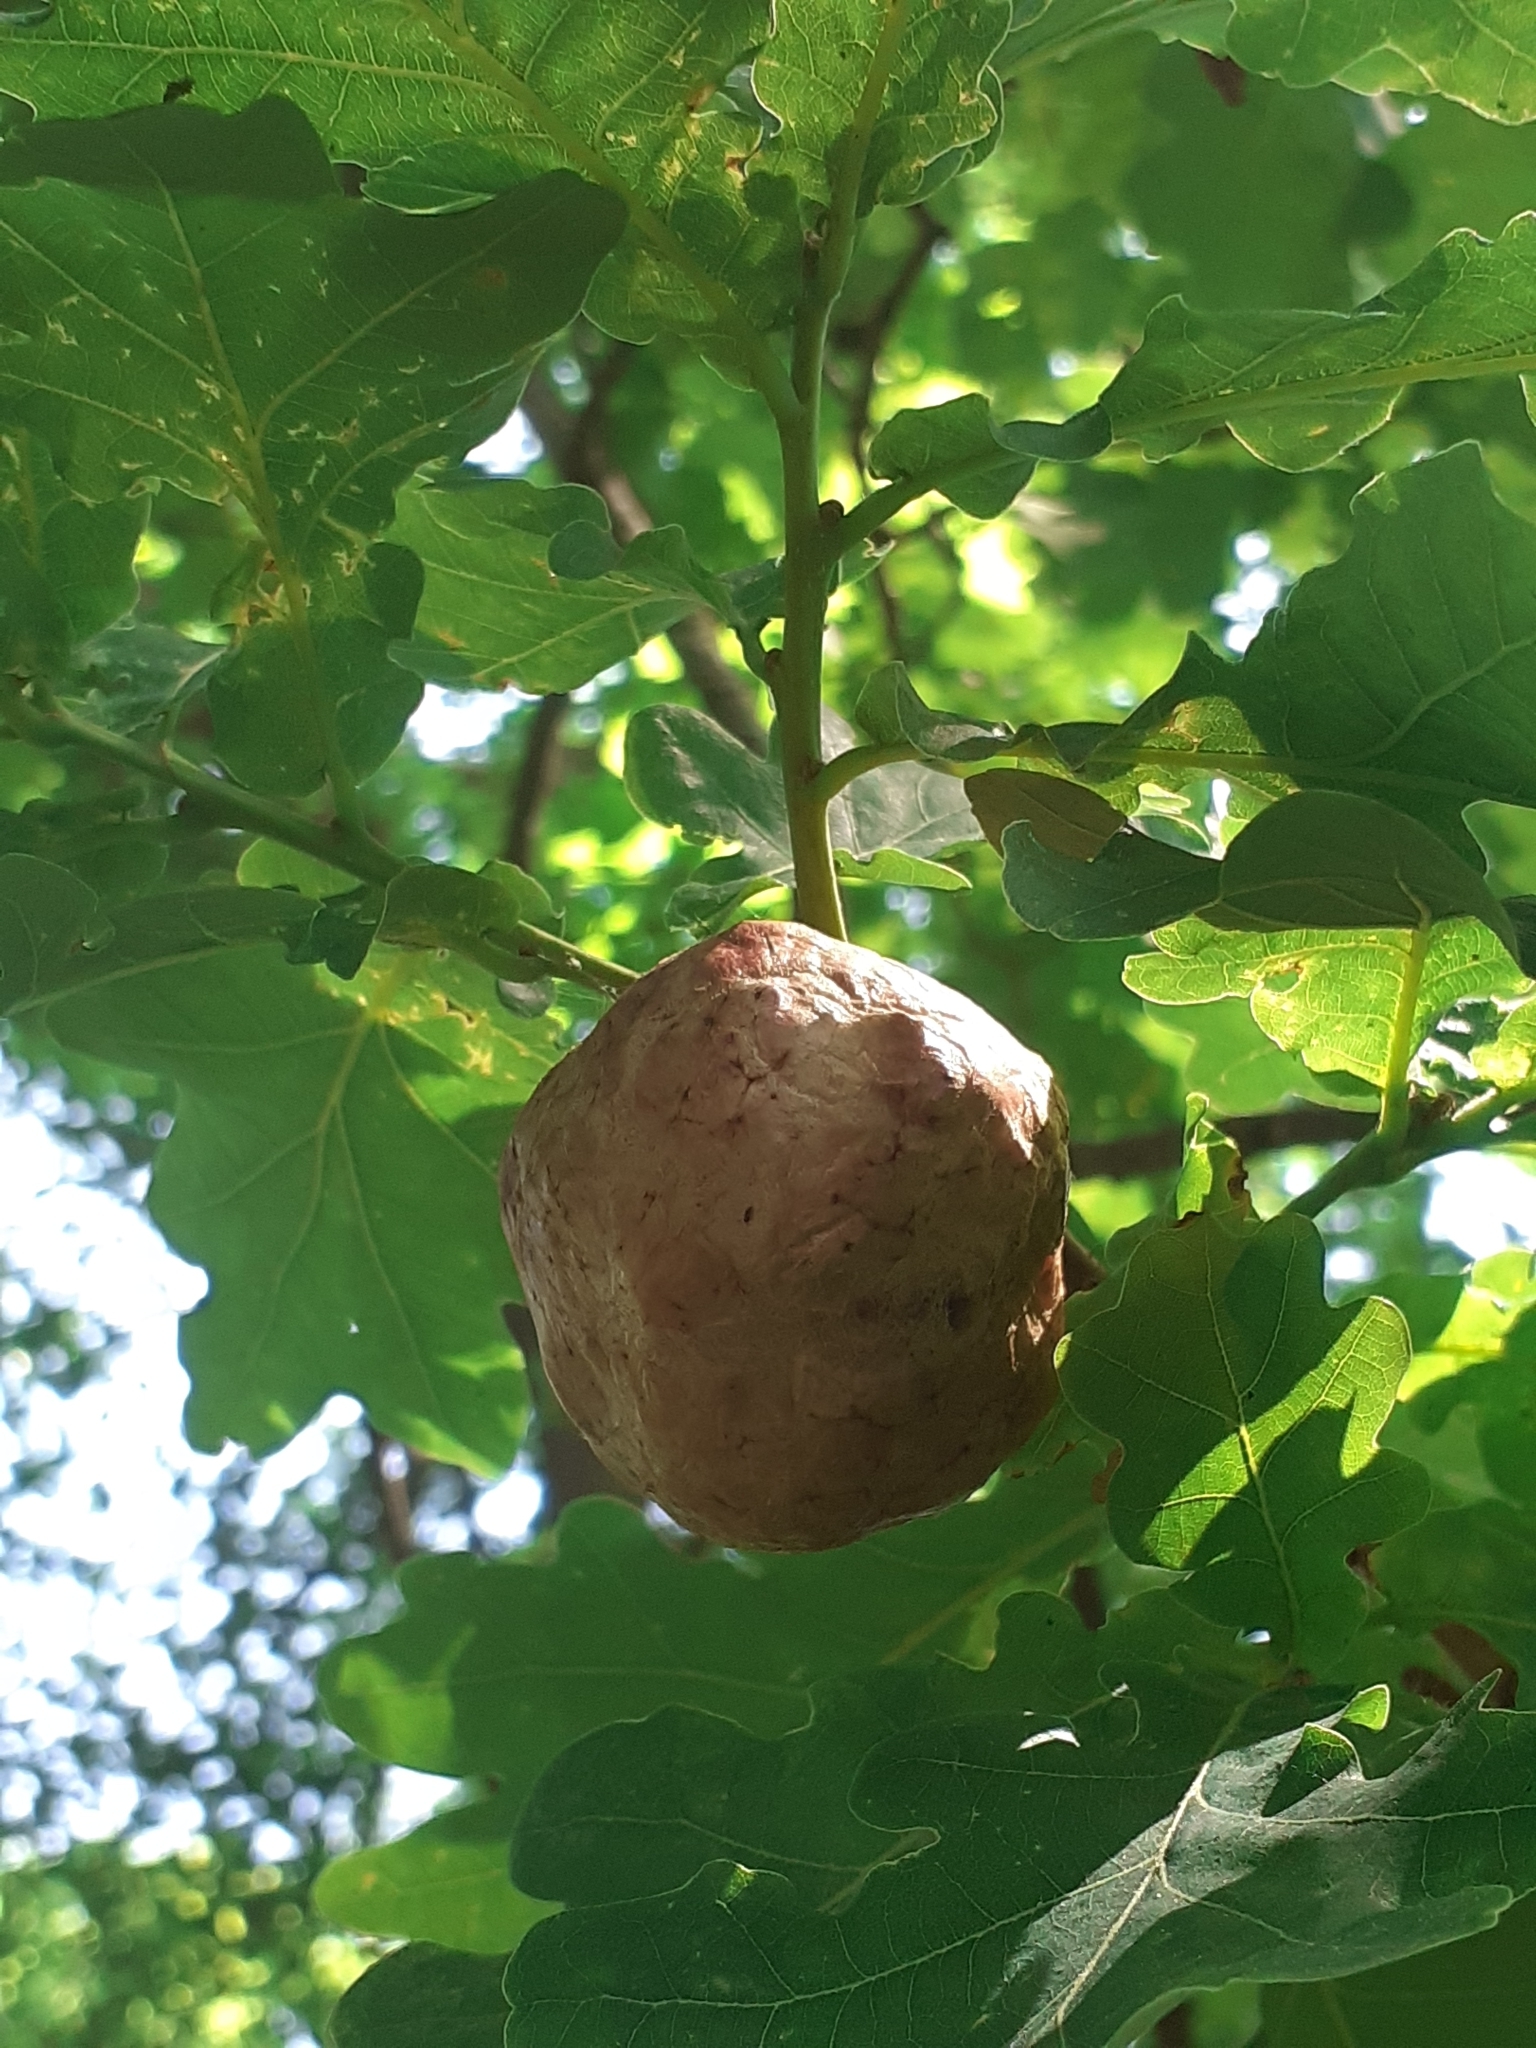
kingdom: Animalia
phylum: Arthropoda
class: Insecta
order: Hymenoptera
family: Cynipidae
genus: Biorhiza
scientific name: Biorhiza pallida
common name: Oak apple
